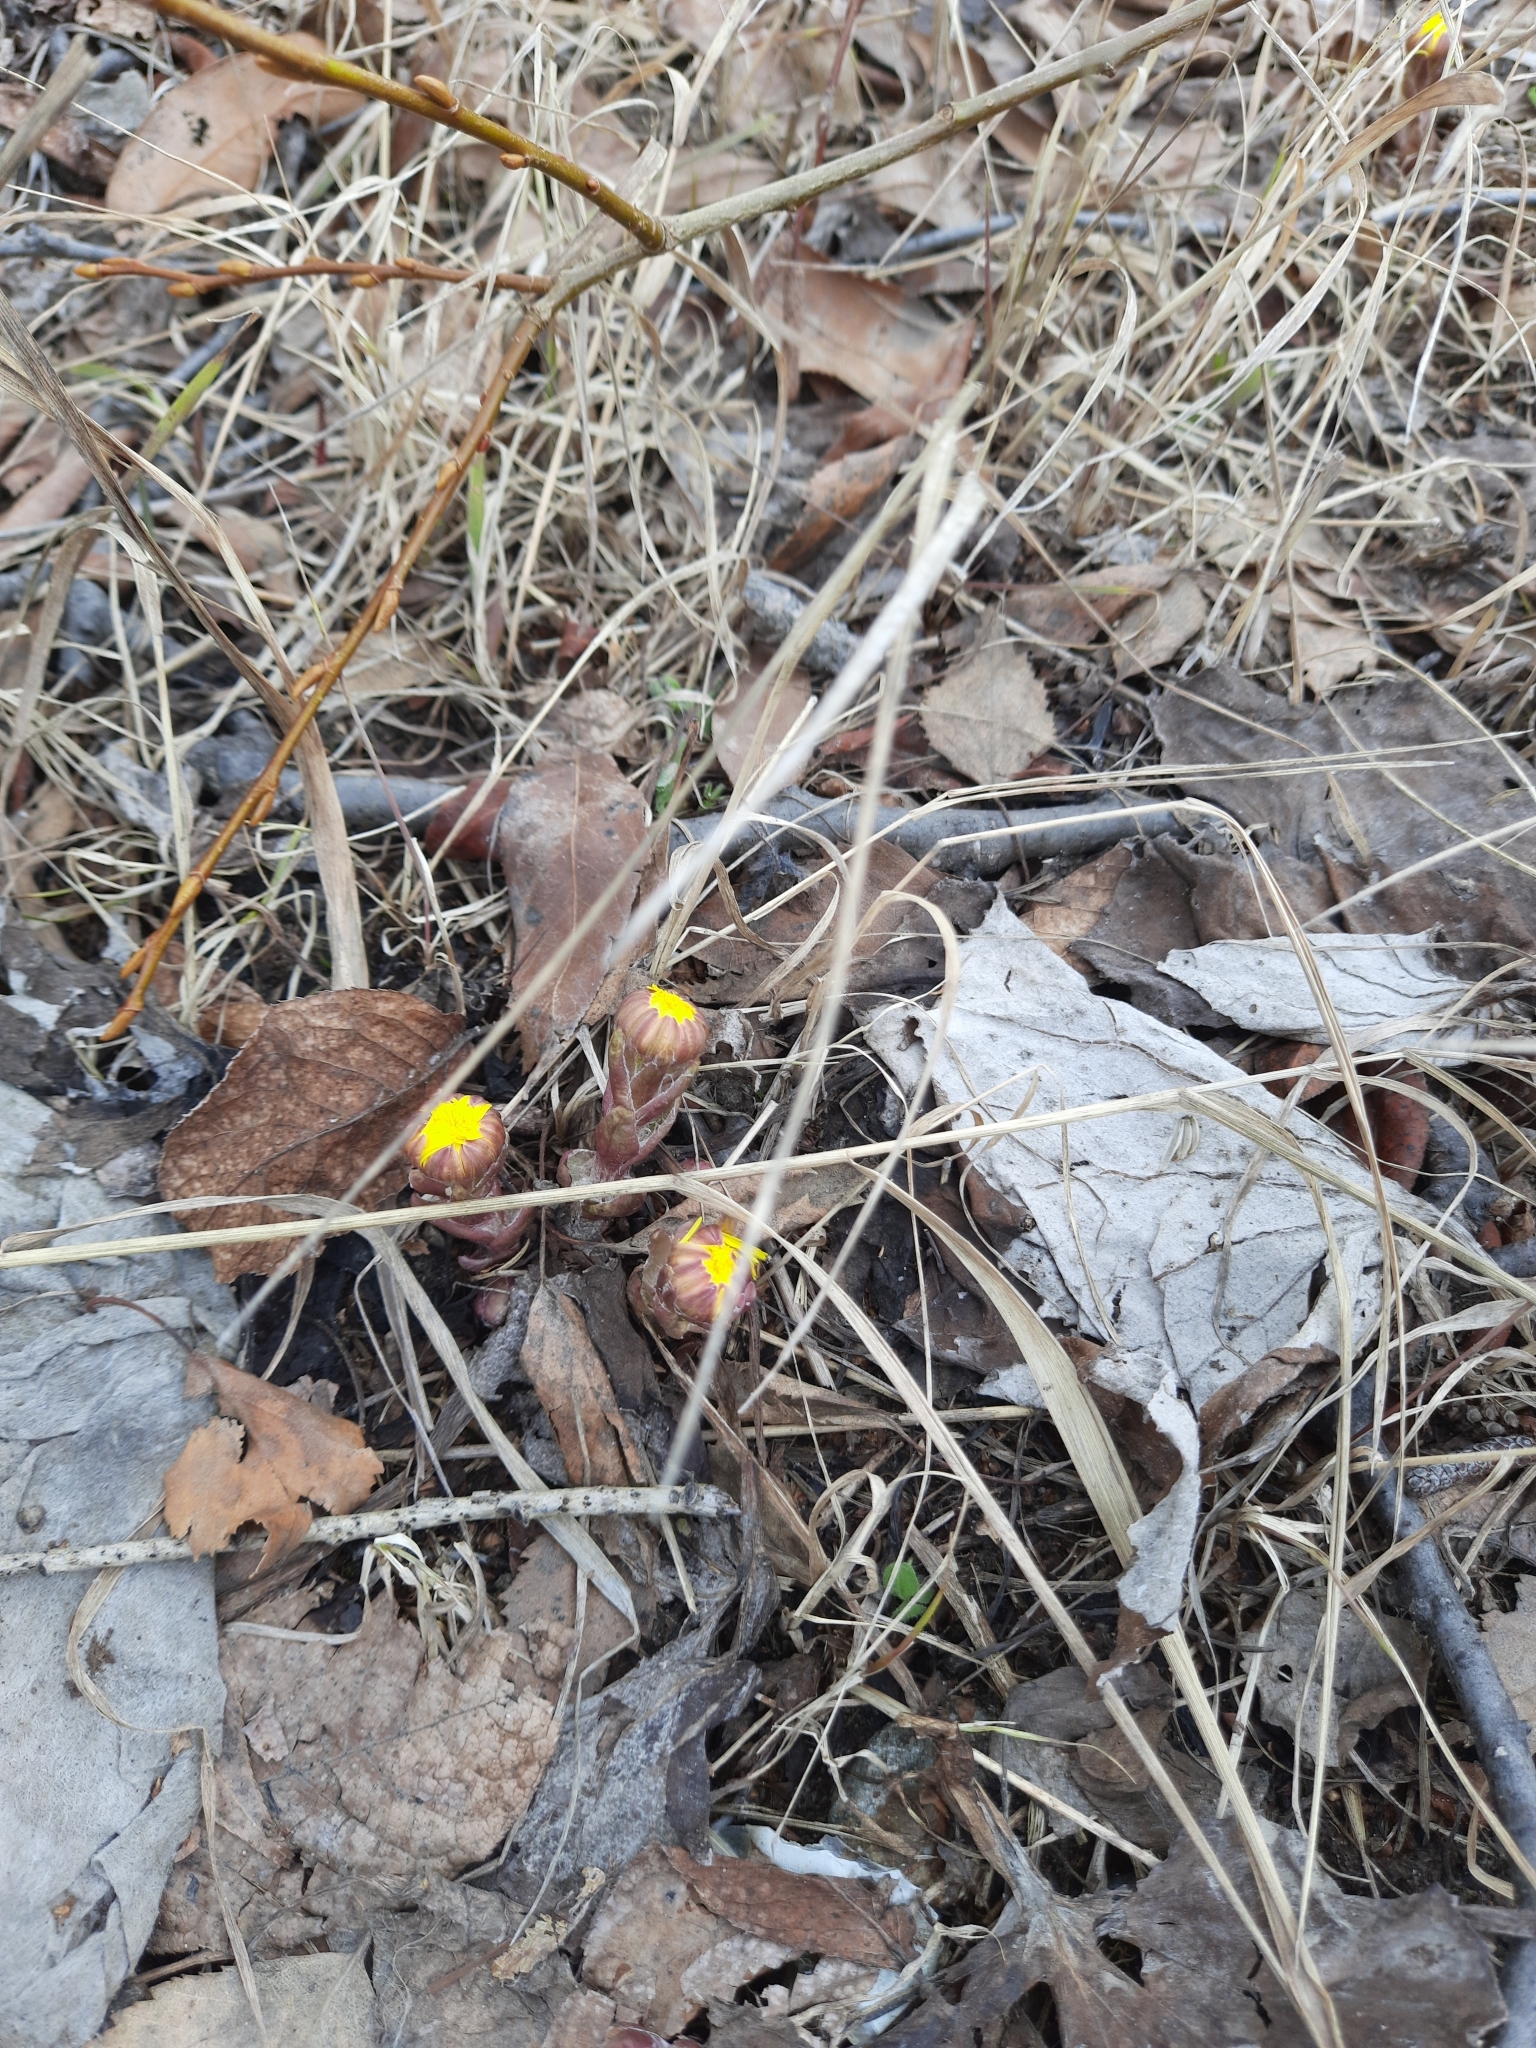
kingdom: Plantae
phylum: Tracheophyta
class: Magnoliopsida
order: Asterales
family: Asteraceae
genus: Tussilago
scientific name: Tussilago farfara
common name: Coltsfoot
